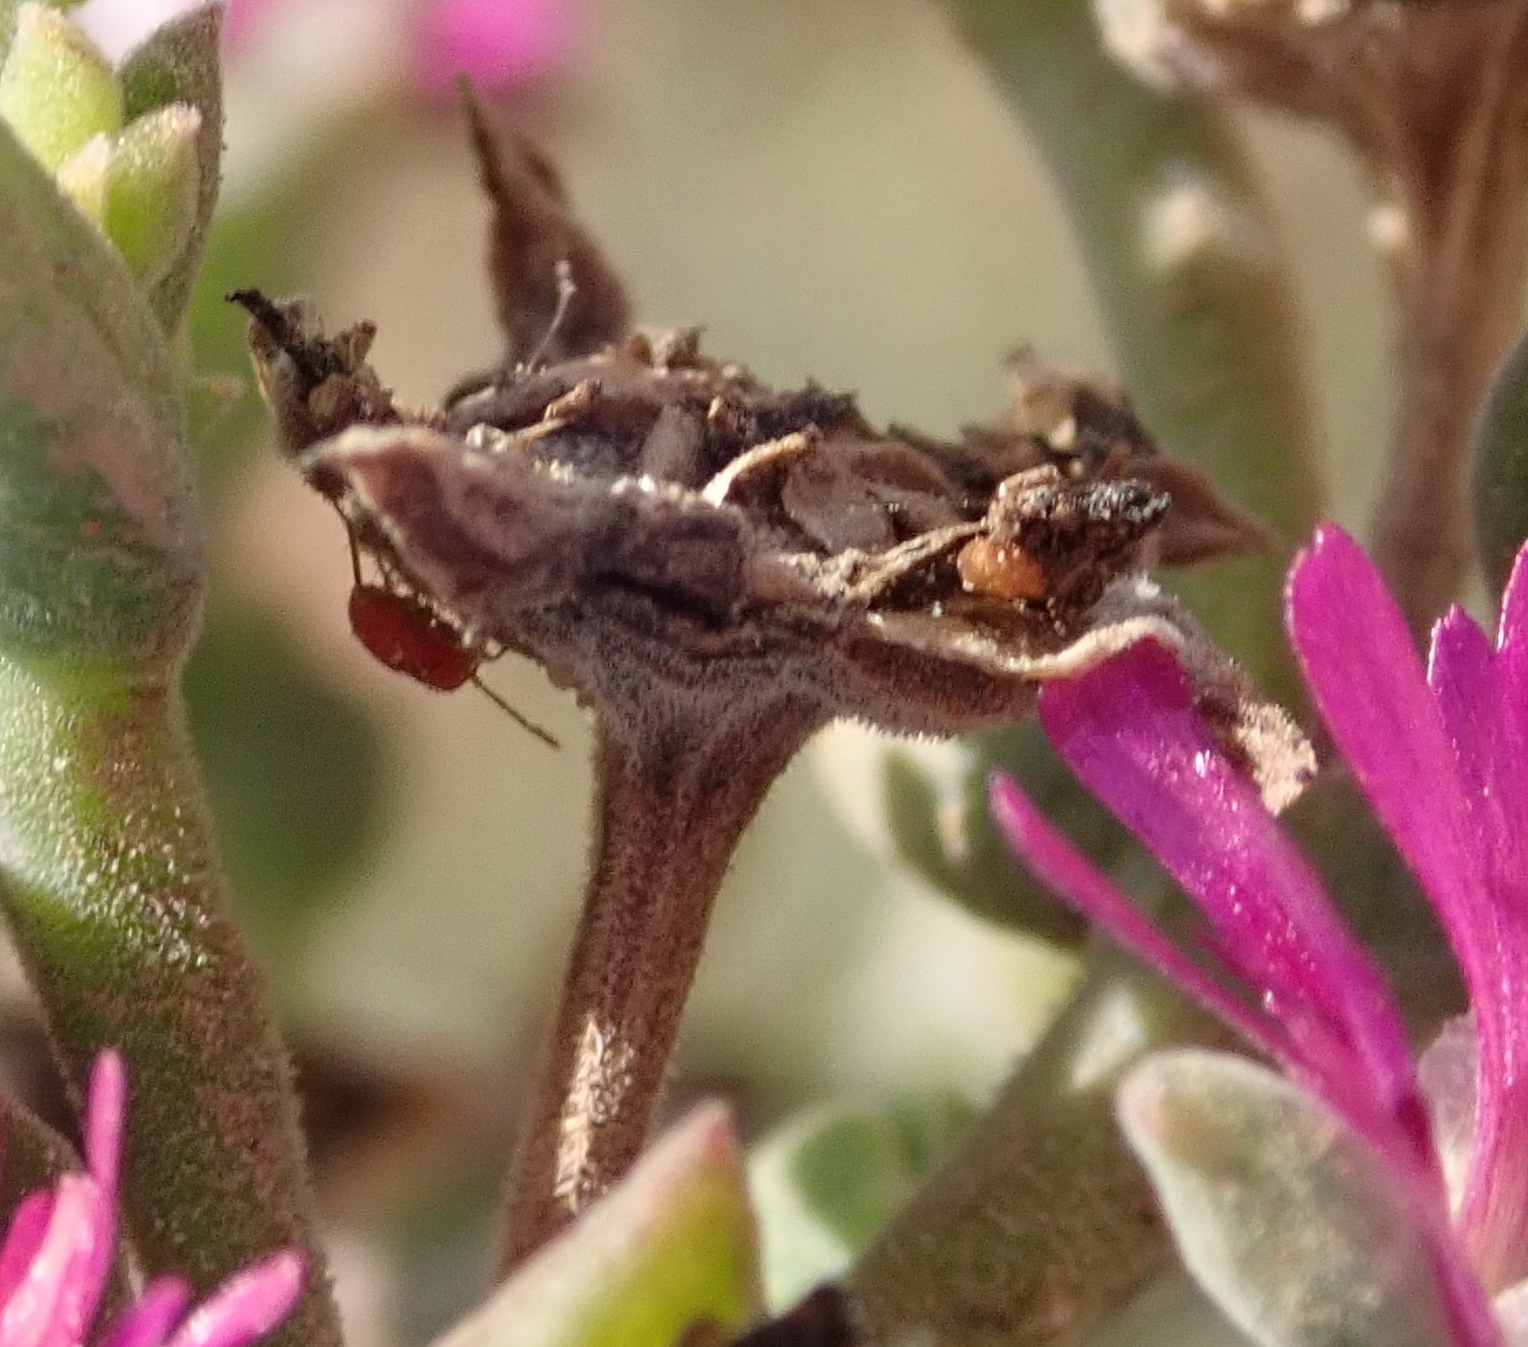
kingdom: Plantae
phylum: Tracheophyta
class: Magnoliopsida
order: Caryophyllales
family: Aizoaceae
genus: Delosperma
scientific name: Delosperma multiflorum
